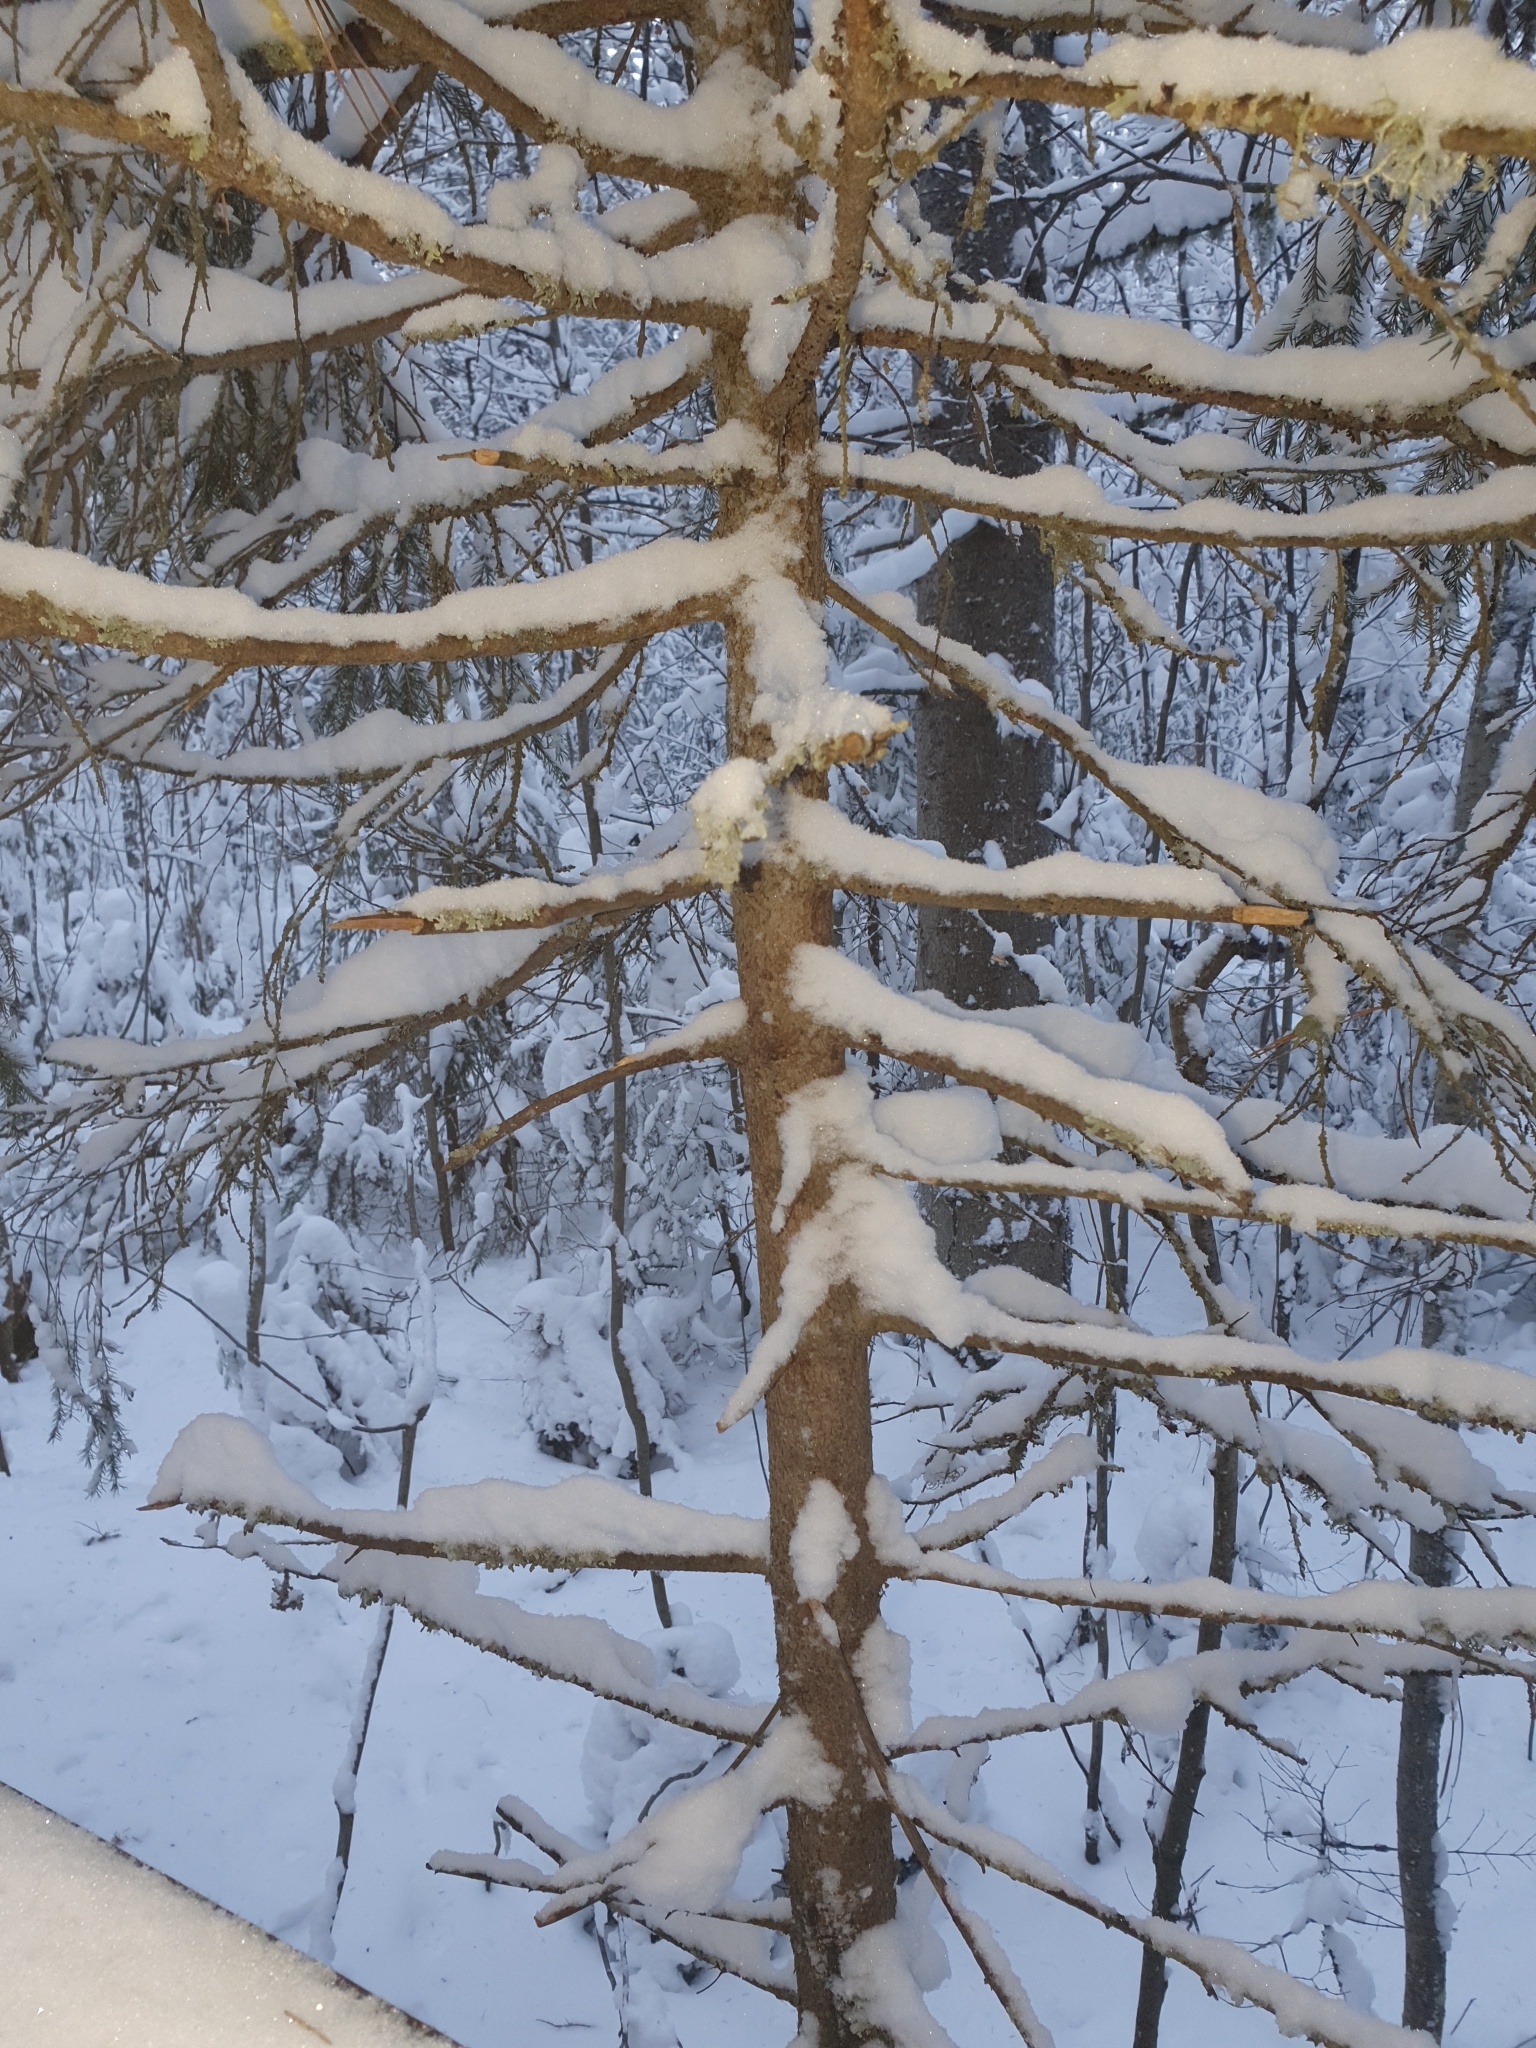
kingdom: Plantae
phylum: Tracheophyta
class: Pinopsida
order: Pinales
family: Pinaceae
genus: Picea
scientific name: Picea obovata
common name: Siberian spruce
